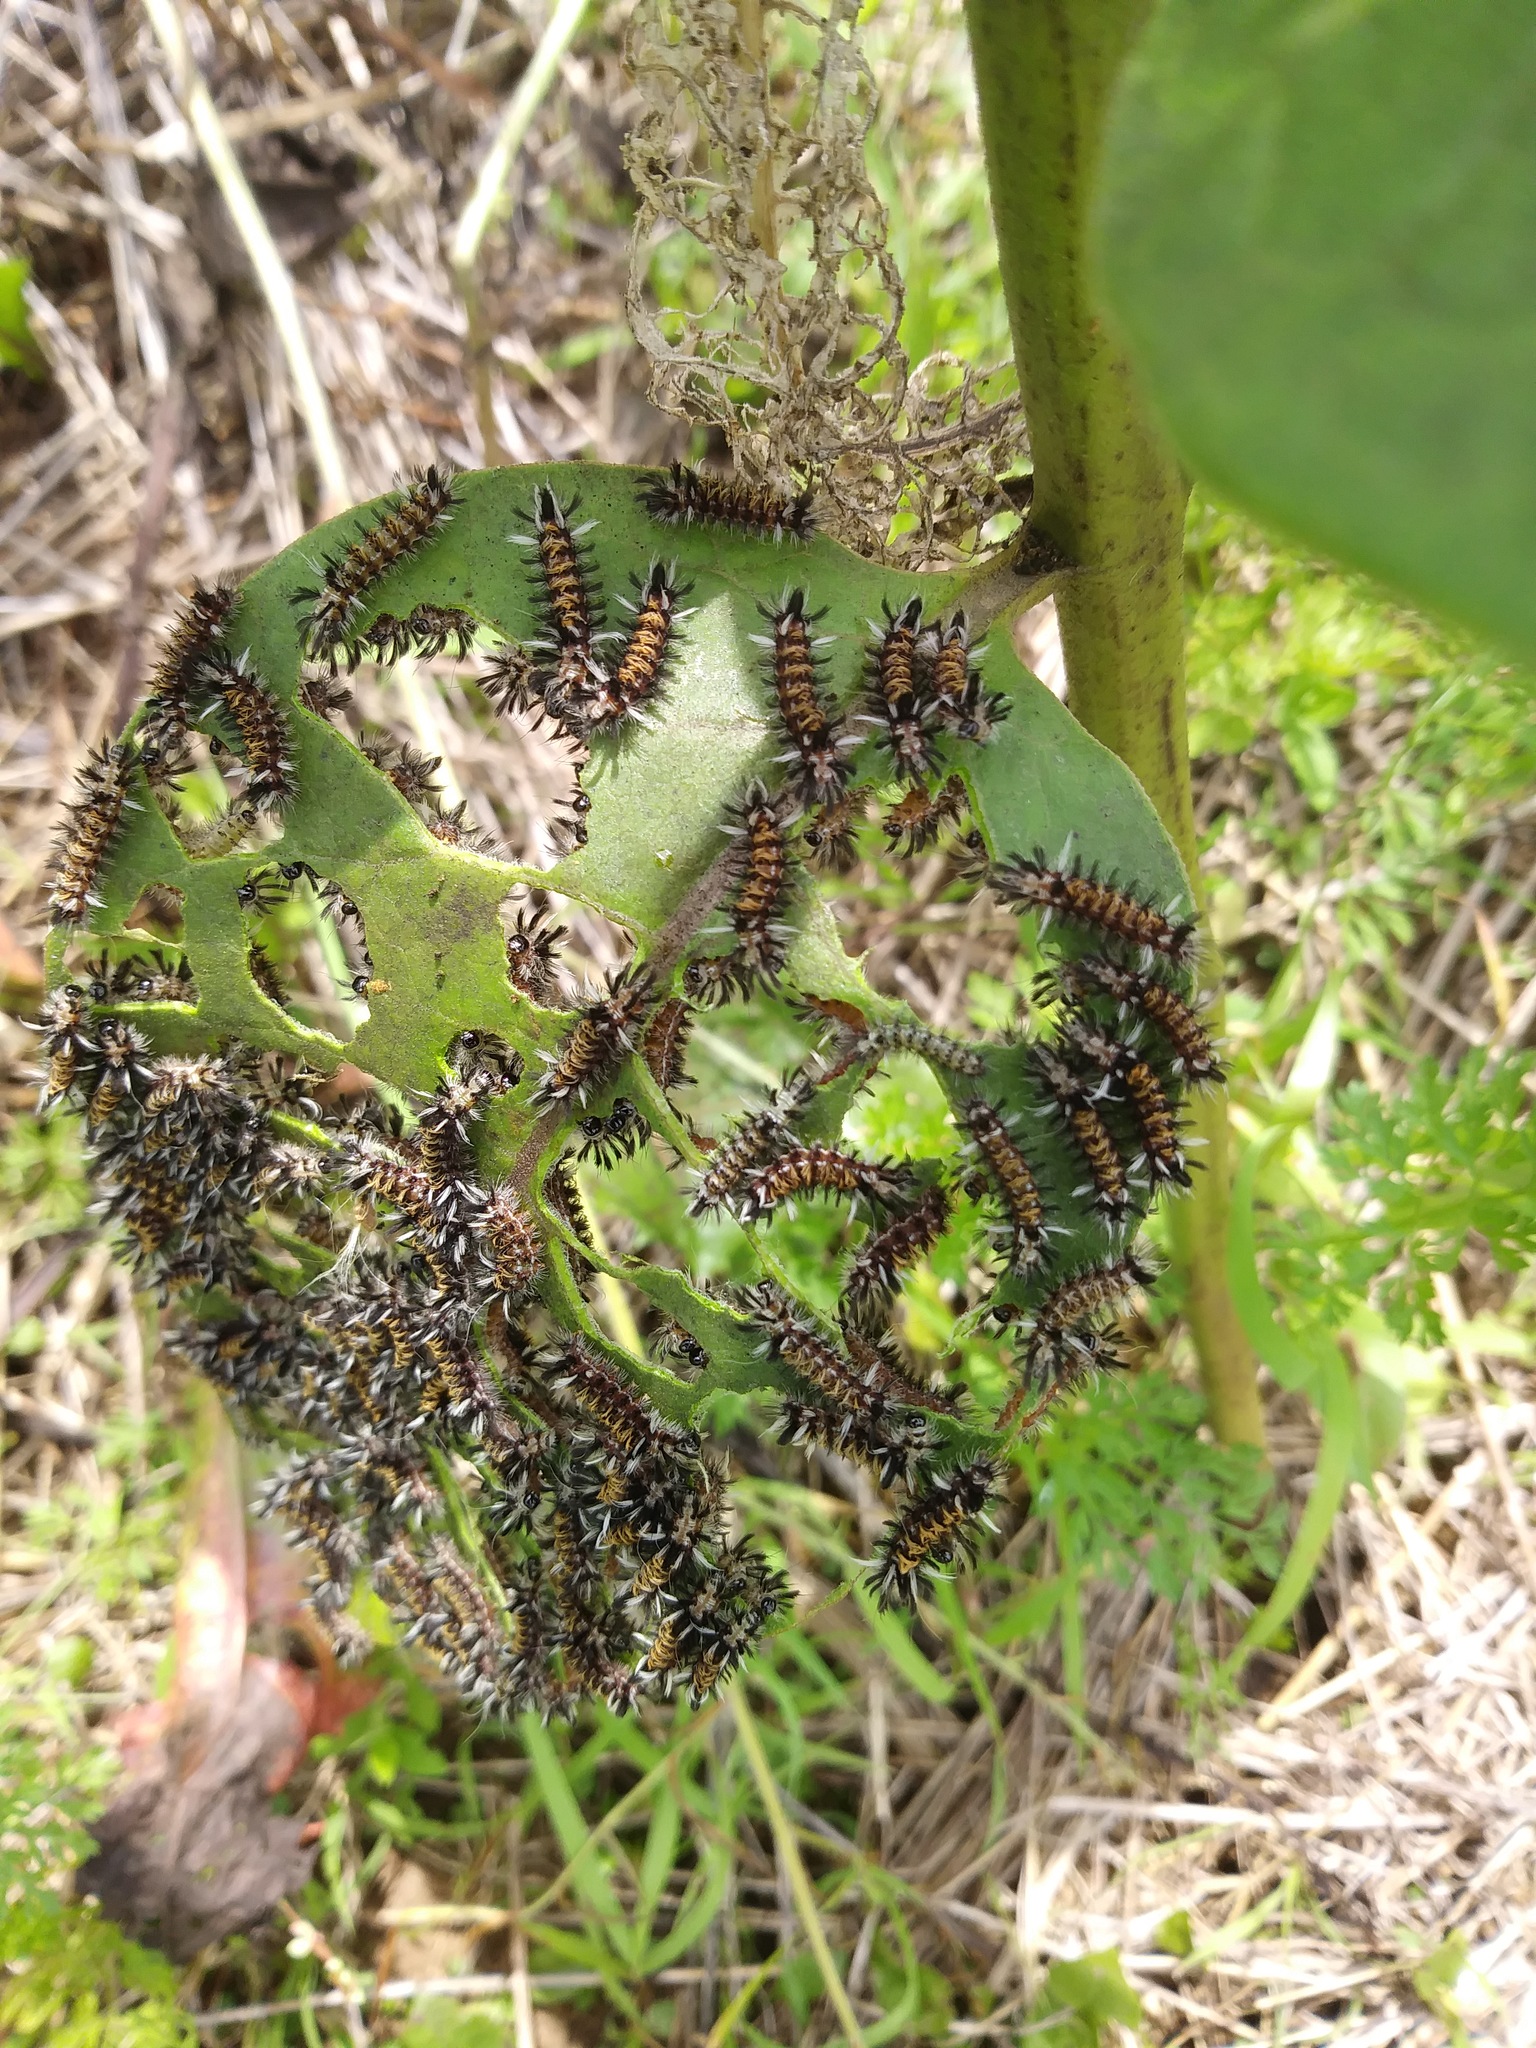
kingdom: Animalia
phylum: Arthropoda
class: Insecta
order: Lepidoptera
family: Erebidae
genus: Euchaetes
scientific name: Euchaetes egle
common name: Milkweed tussock moth
